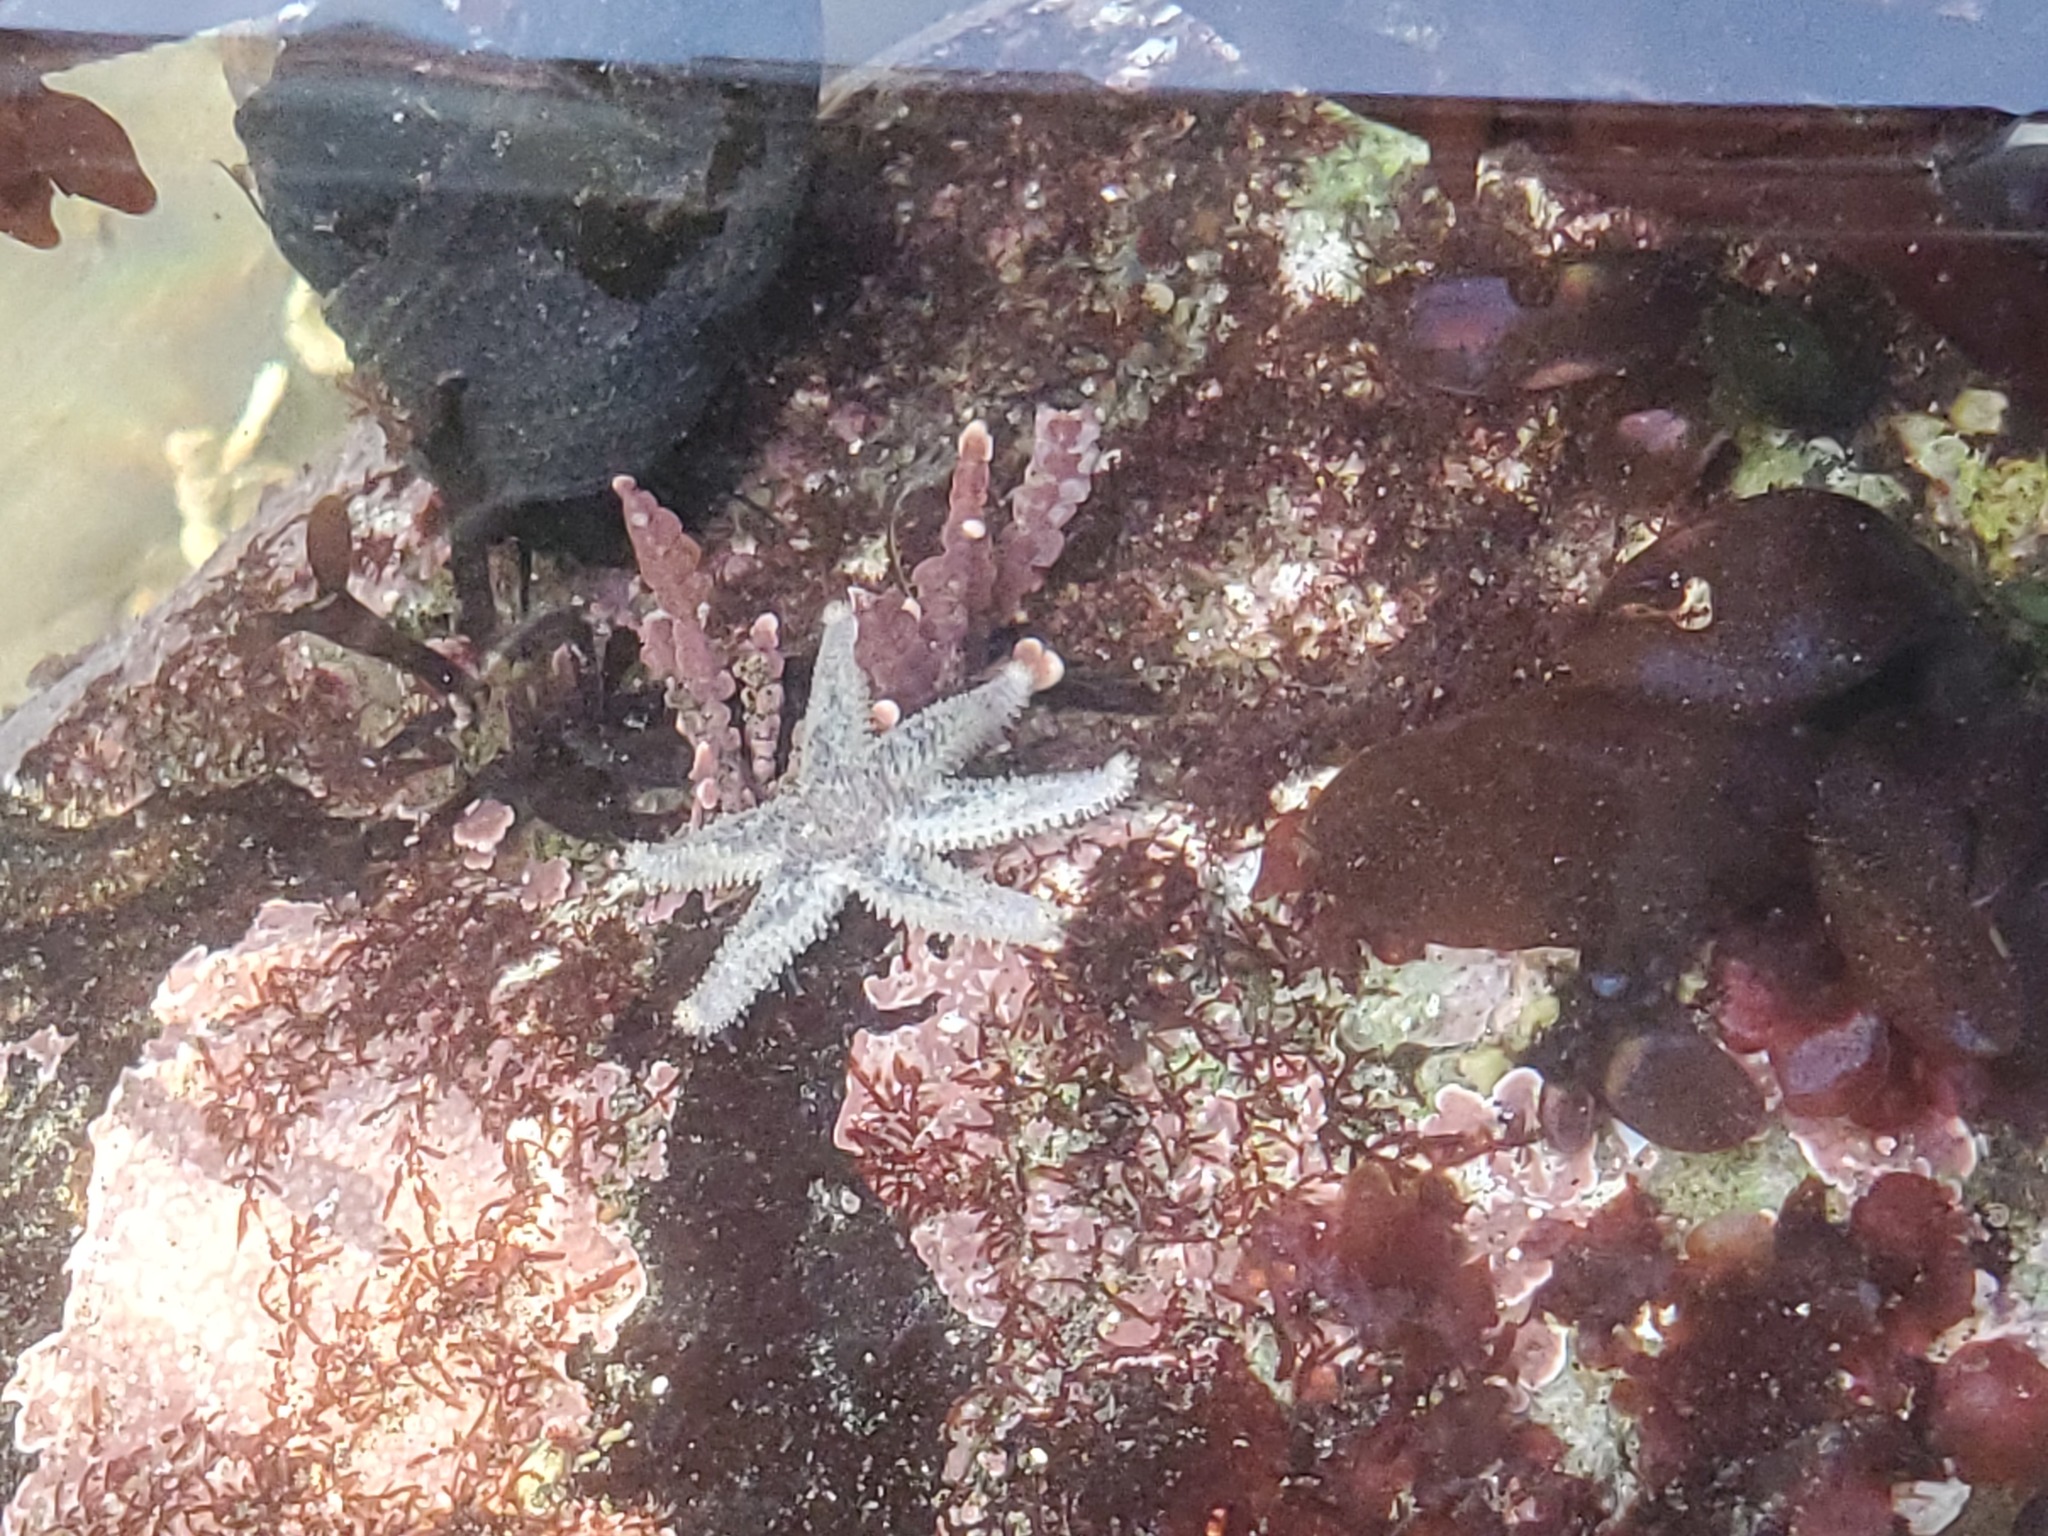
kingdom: Animalia
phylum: Echinodermata
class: Asteroidea
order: Forcipulatida
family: Asteriidae
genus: Leptasterias
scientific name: Leptasterias hexactis
